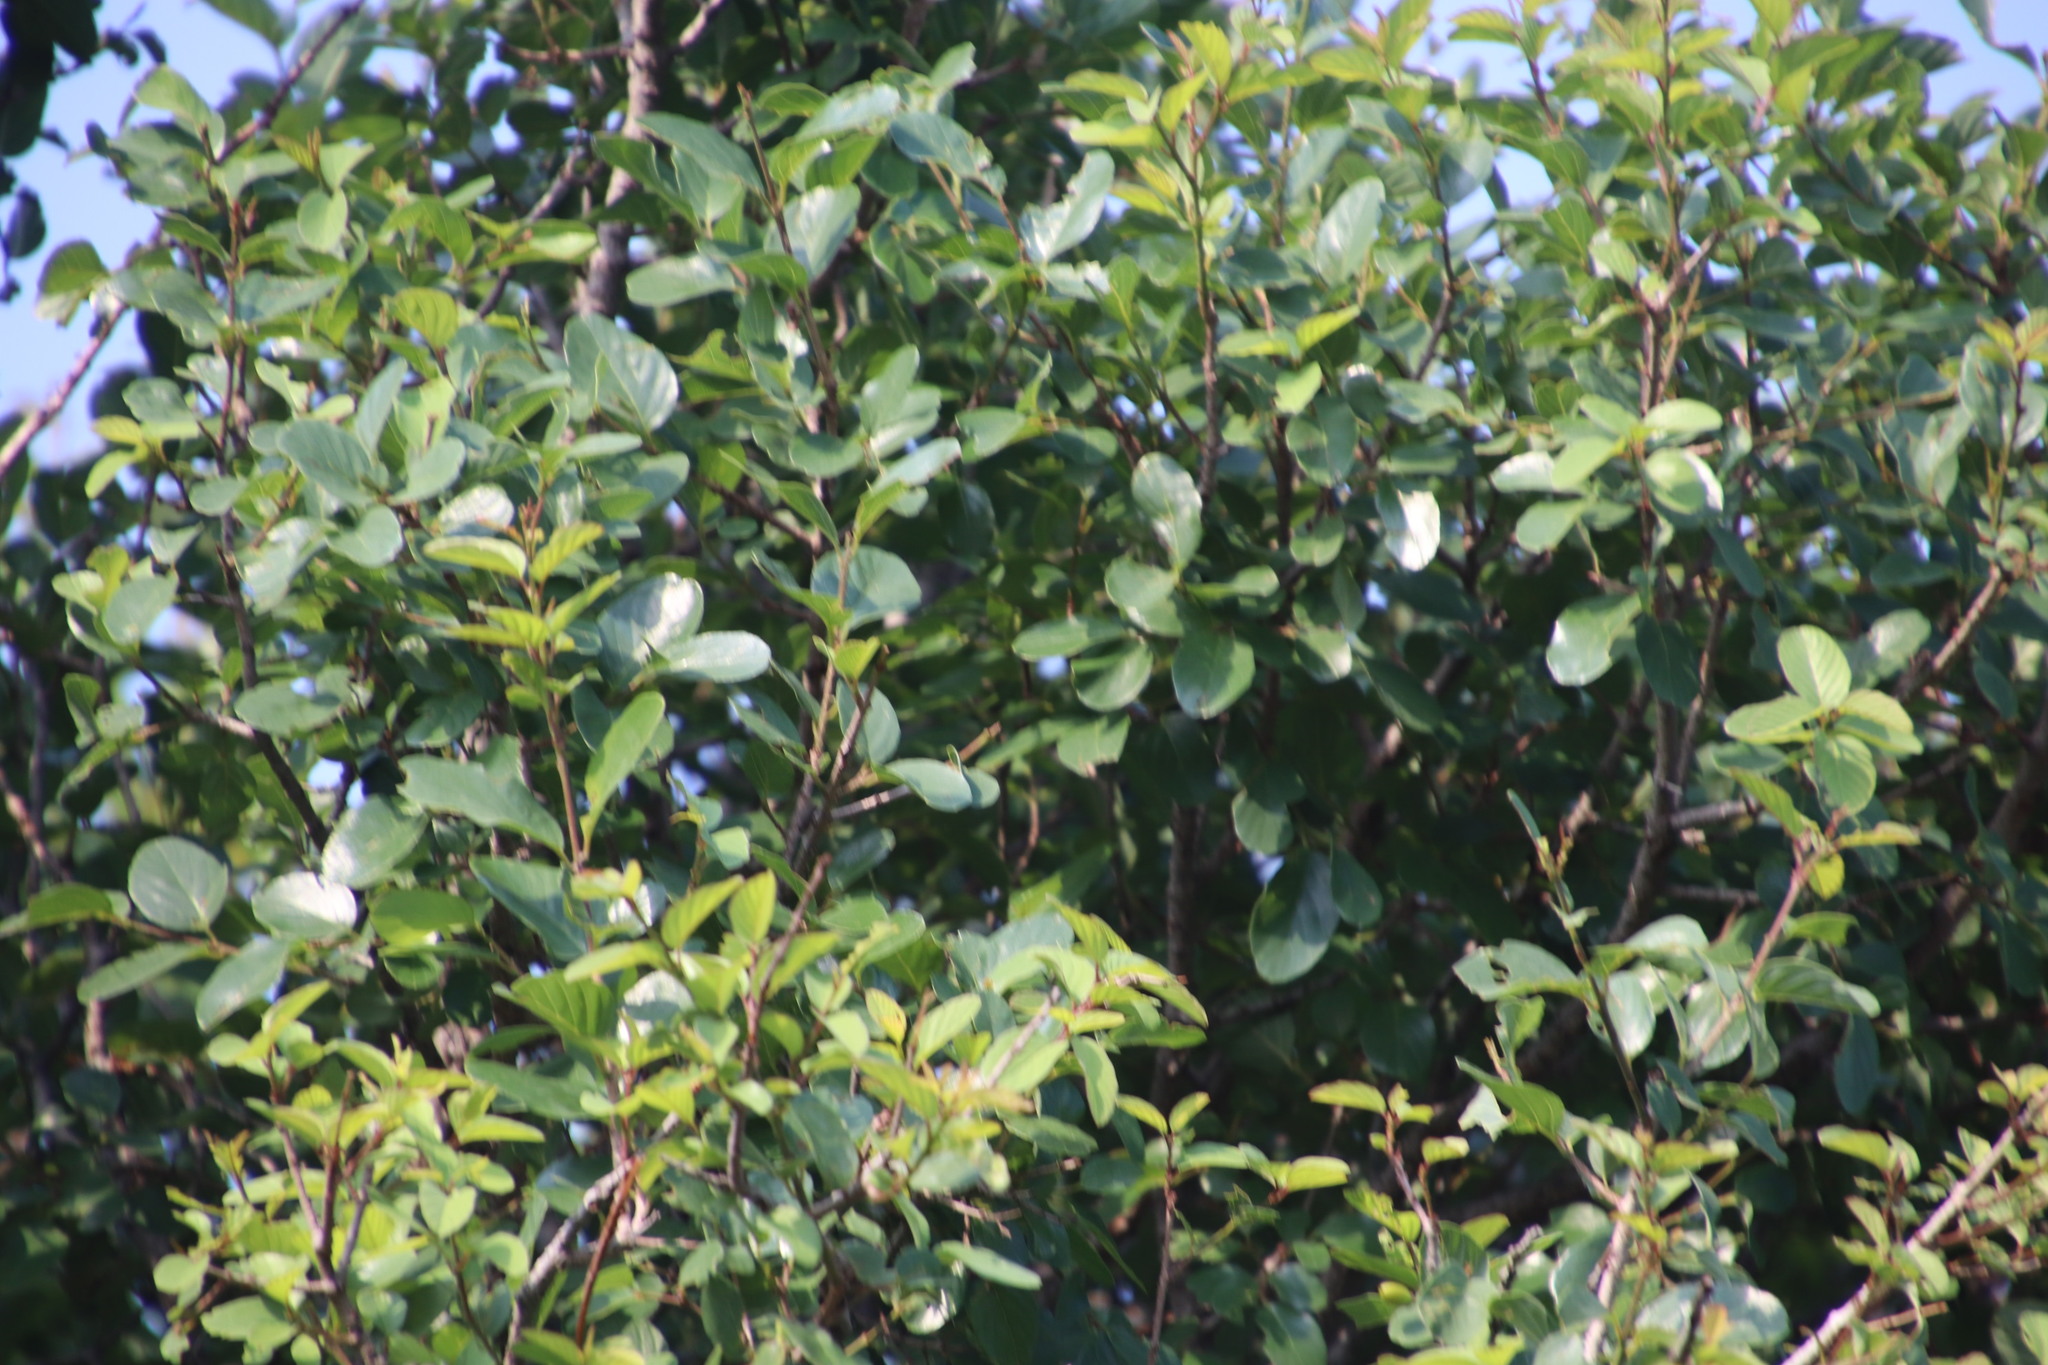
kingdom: Plantae
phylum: Tracheophyta
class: Magnoliopsida
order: Rosales
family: Rhamnaceae
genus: Phyllogeiton
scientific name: Phyllogeiton zeyheri
